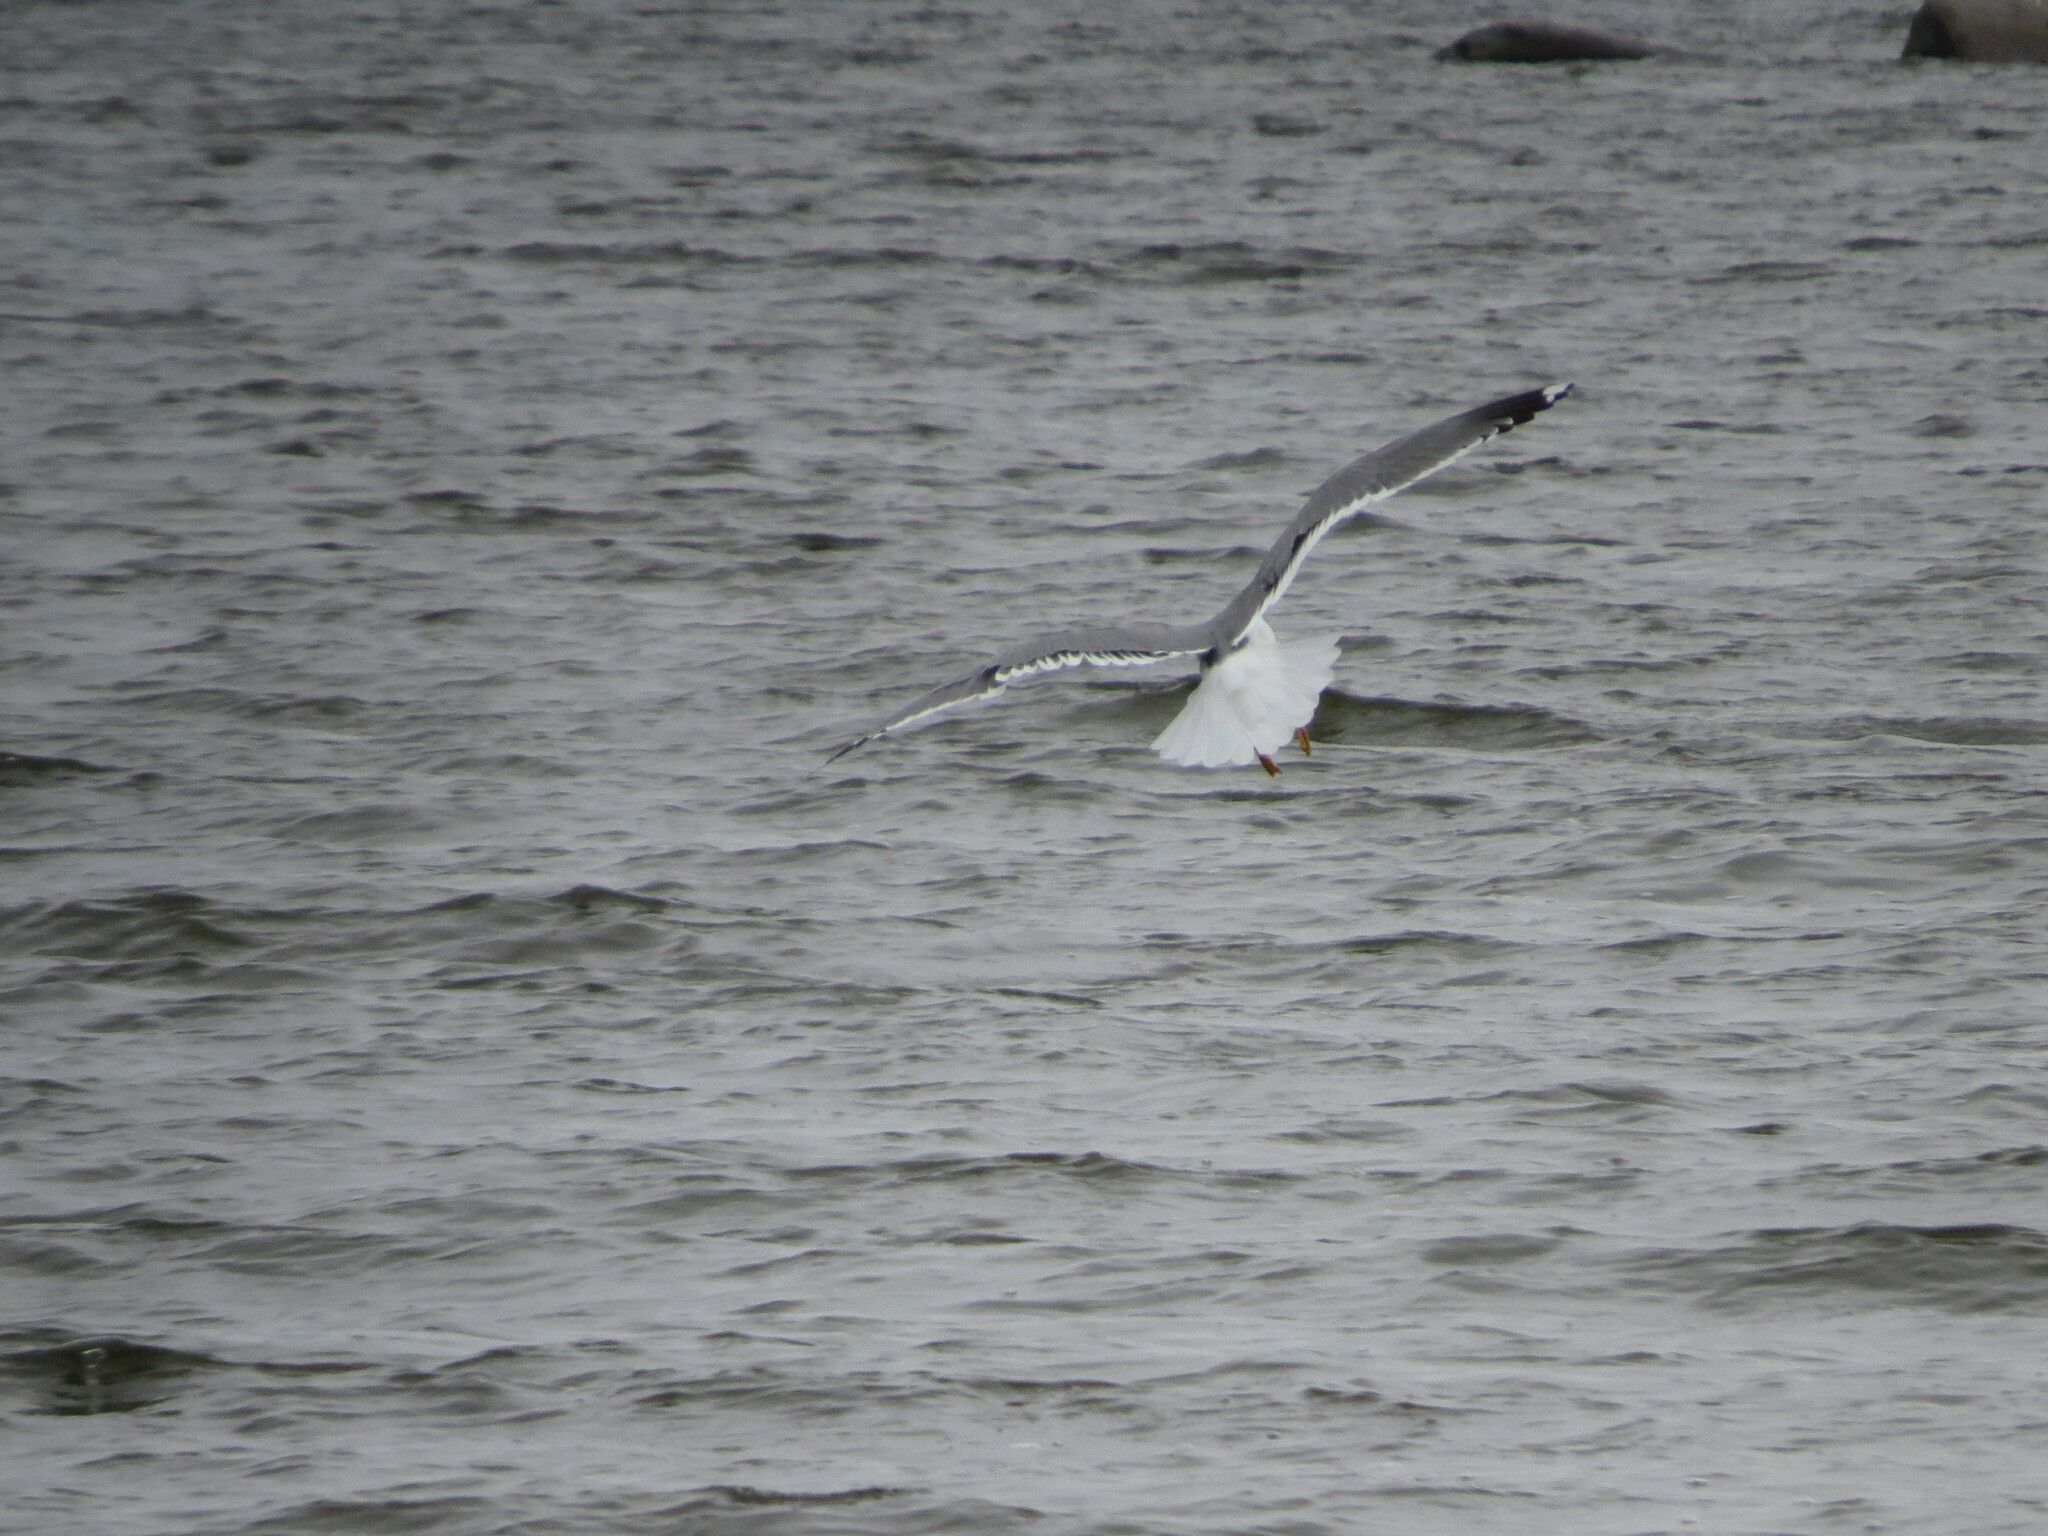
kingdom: Animalia
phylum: Chordata
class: Aves
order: Charadriiformes
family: Laridae
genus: Larus
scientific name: Larus fuscus
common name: Lesser black-backed gull
